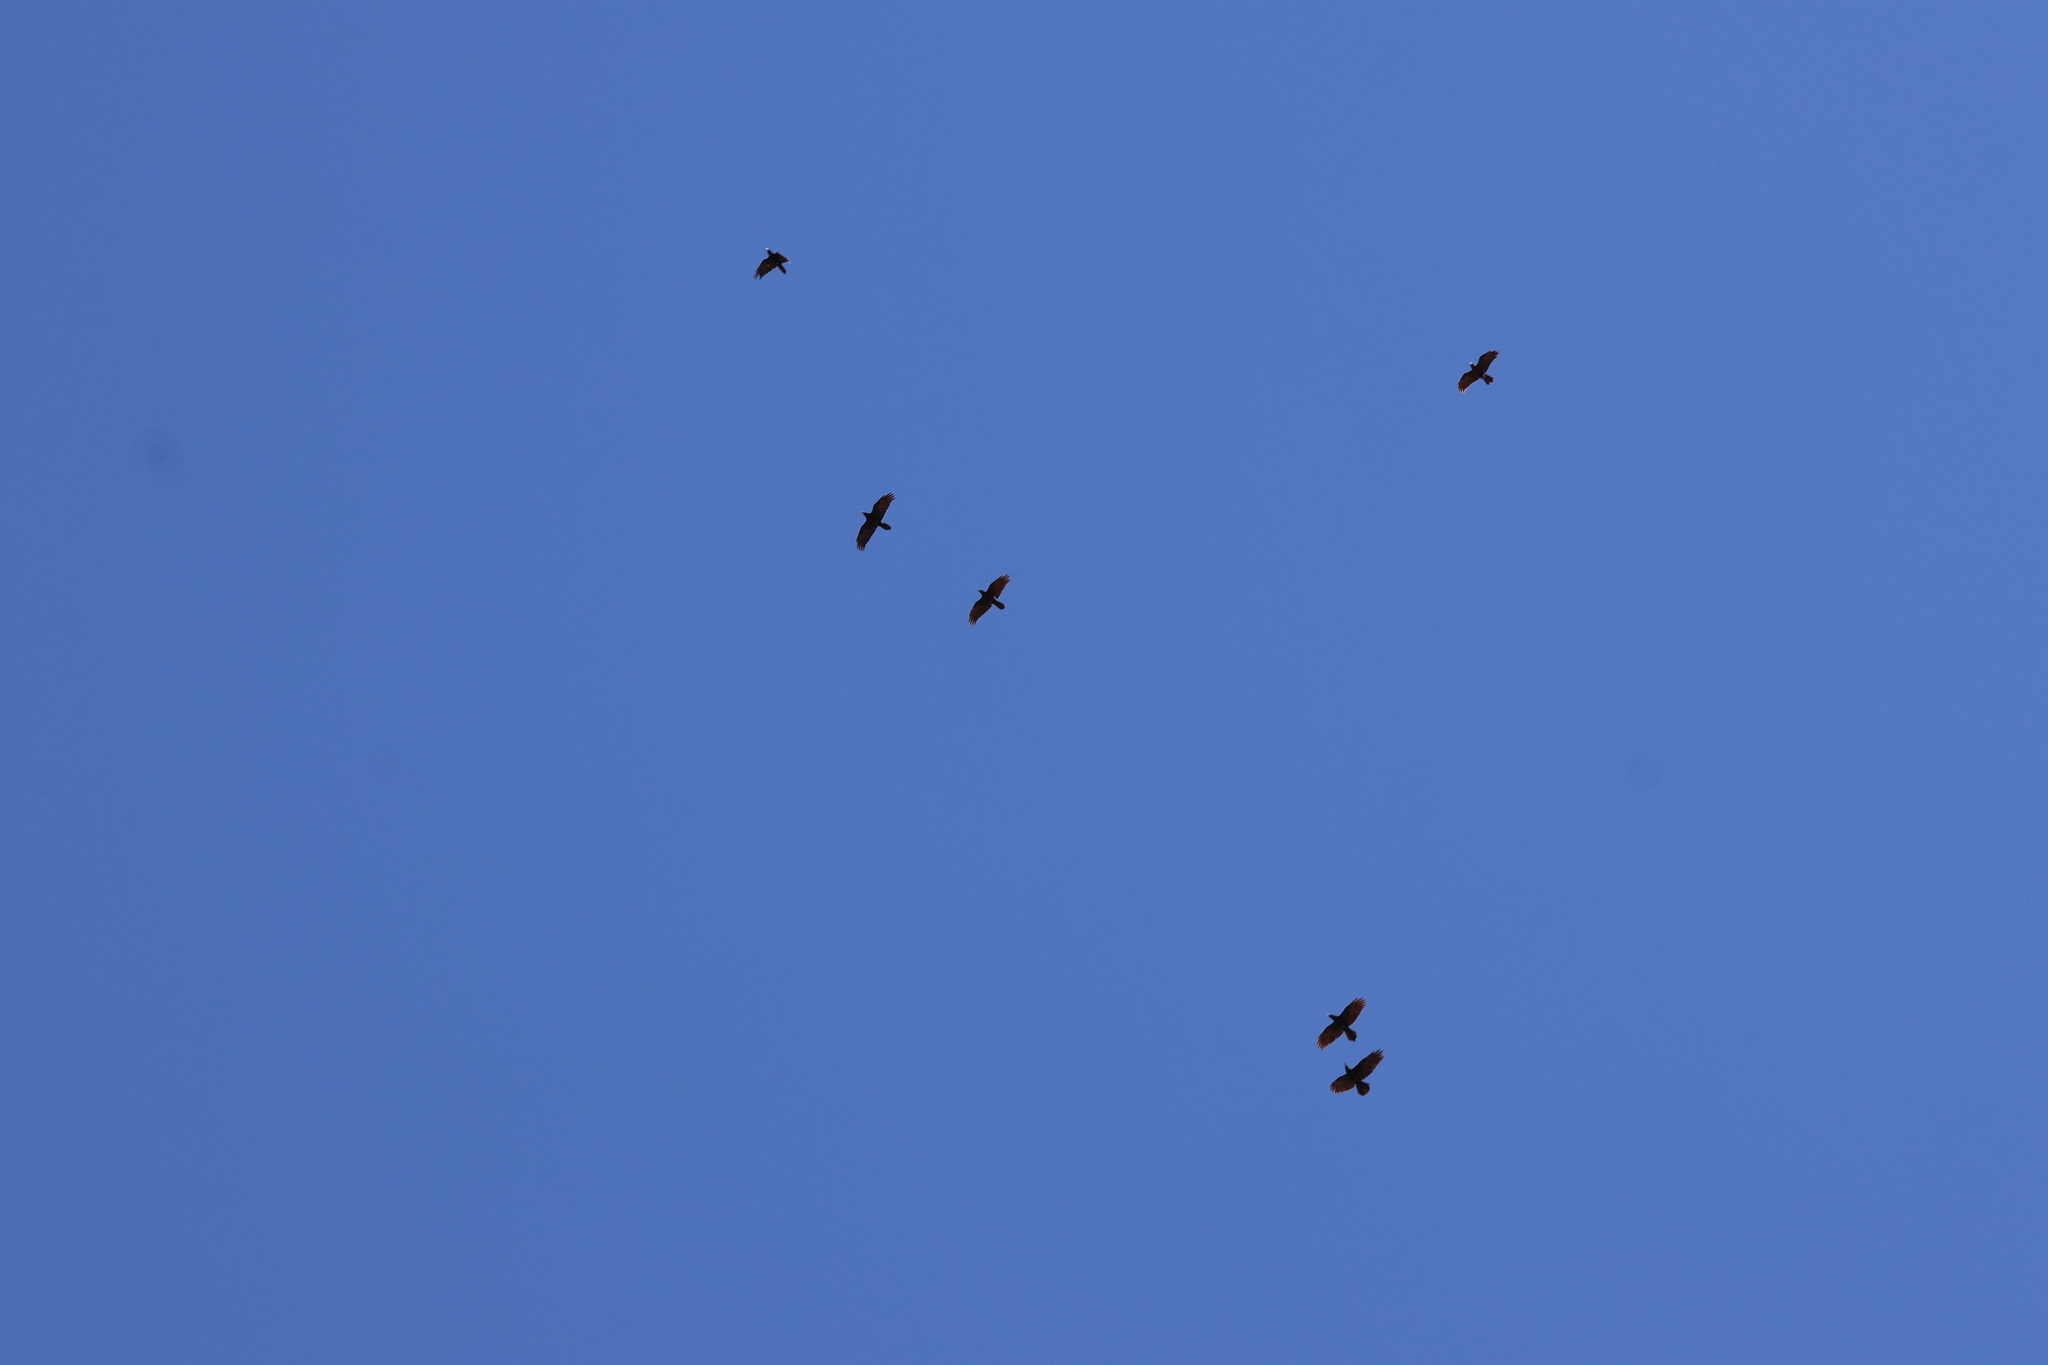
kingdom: Animalia
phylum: Chordata
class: Aves
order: Passeriformes
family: Corvidae
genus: Corvus
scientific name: Corvus corax
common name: Common raven
